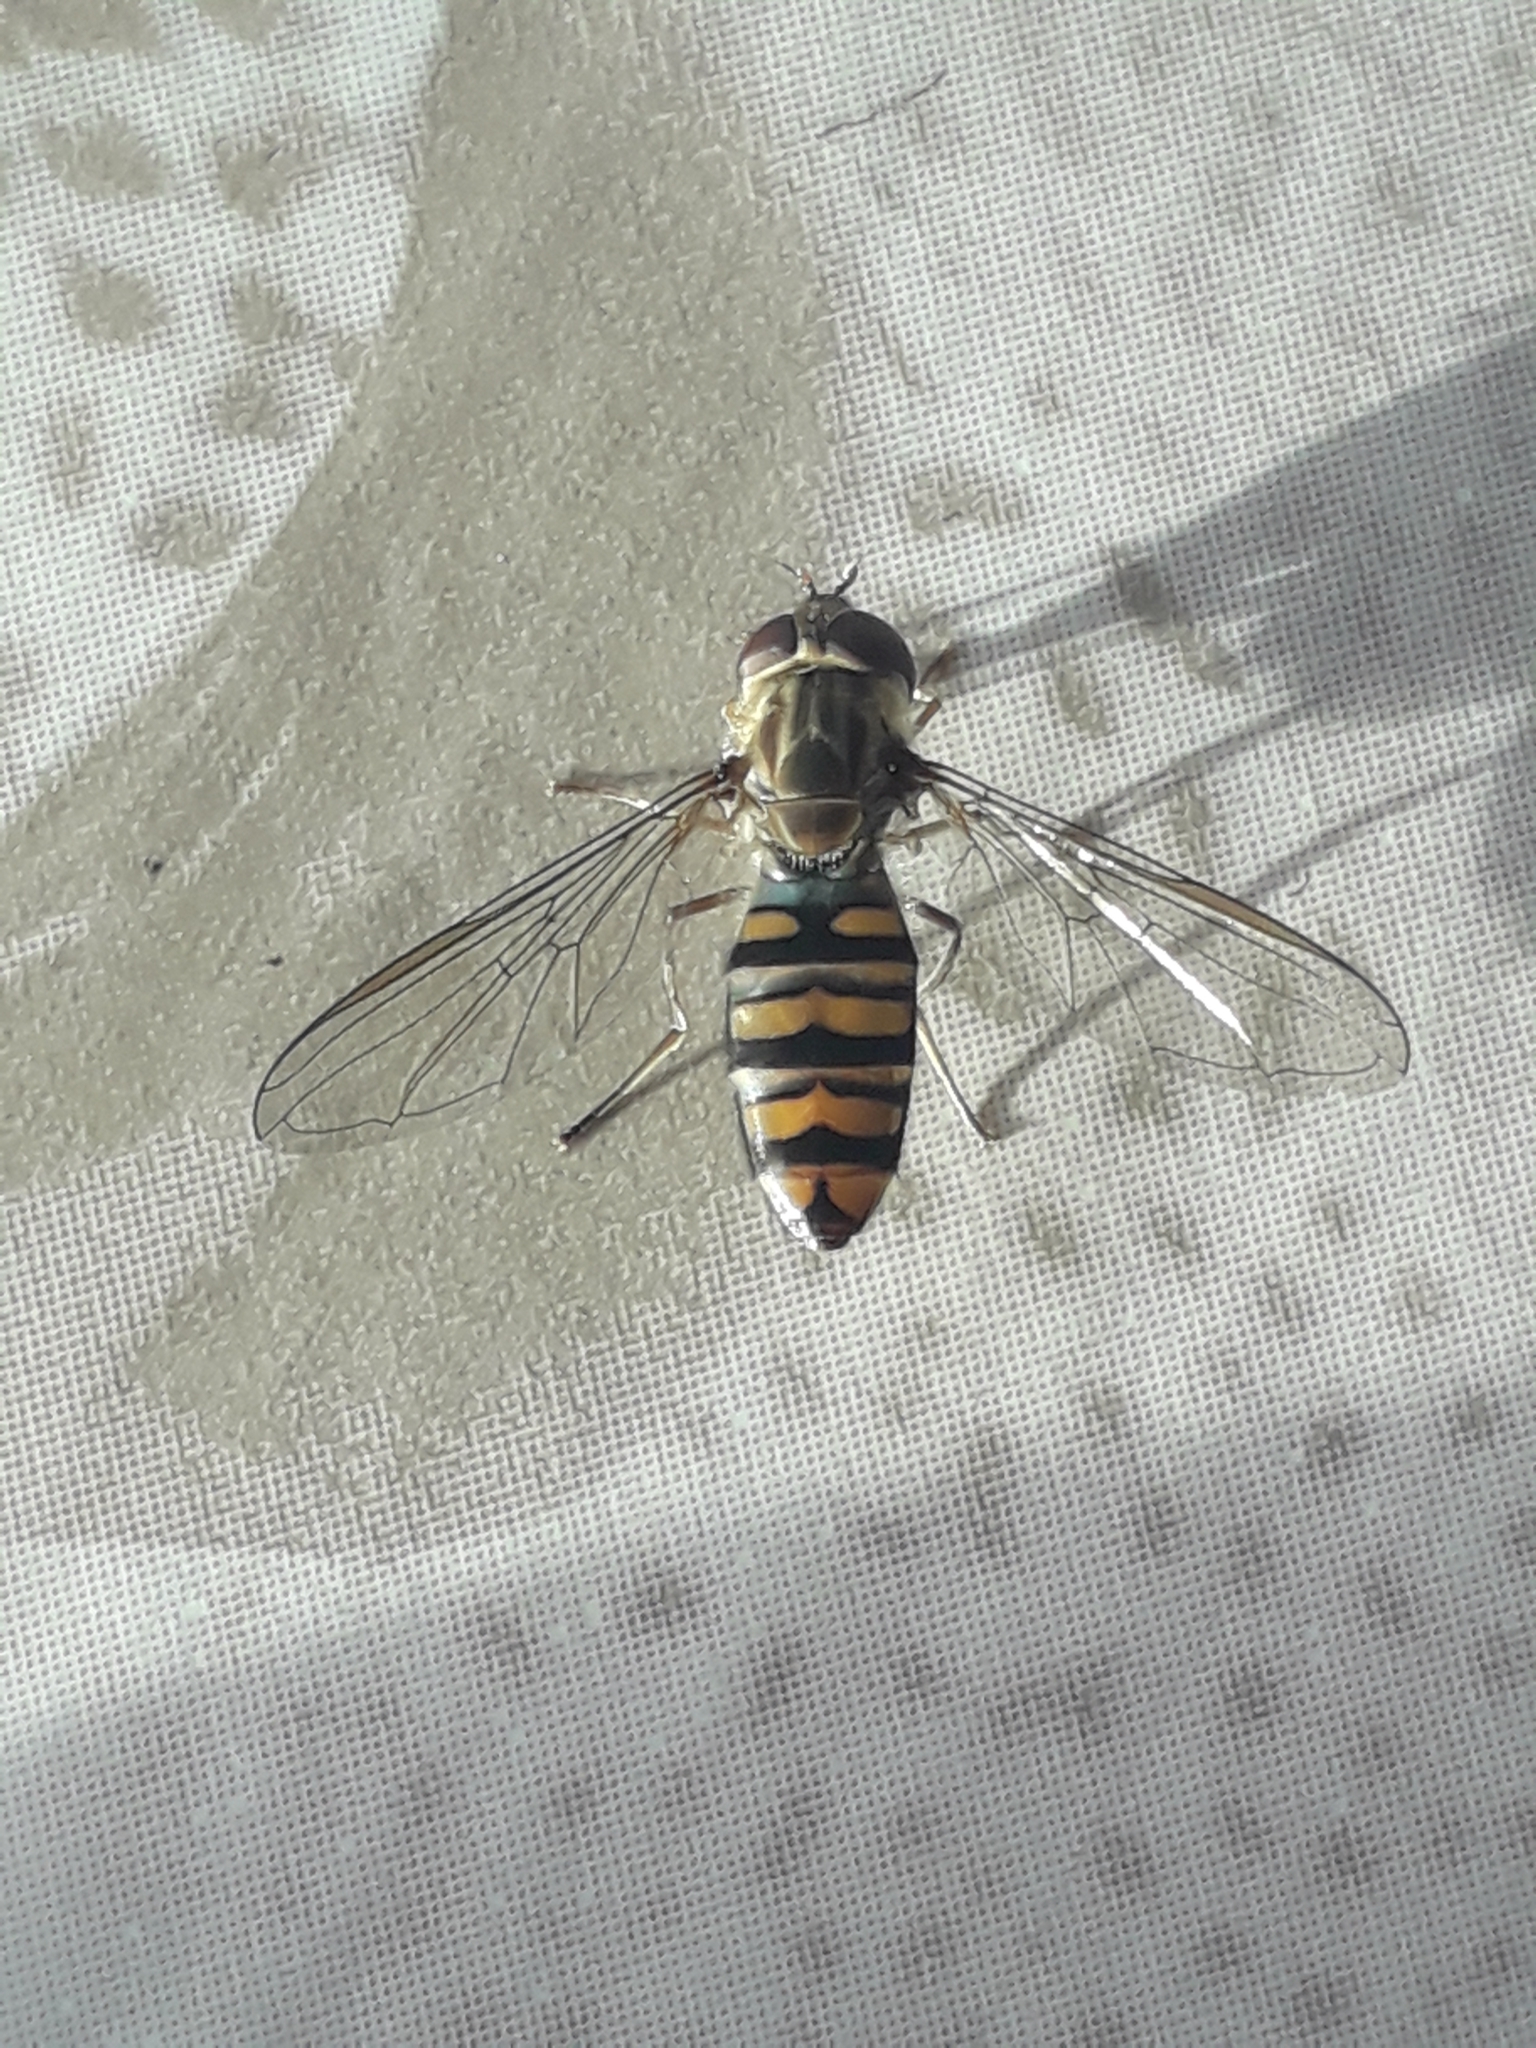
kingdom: Animalia
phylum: Arthropoda
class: Insecta
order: Diptera
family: Syrphidae
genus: Episyrphus
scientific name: Episyrphus balteatus
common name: Marmalade hoverfly
